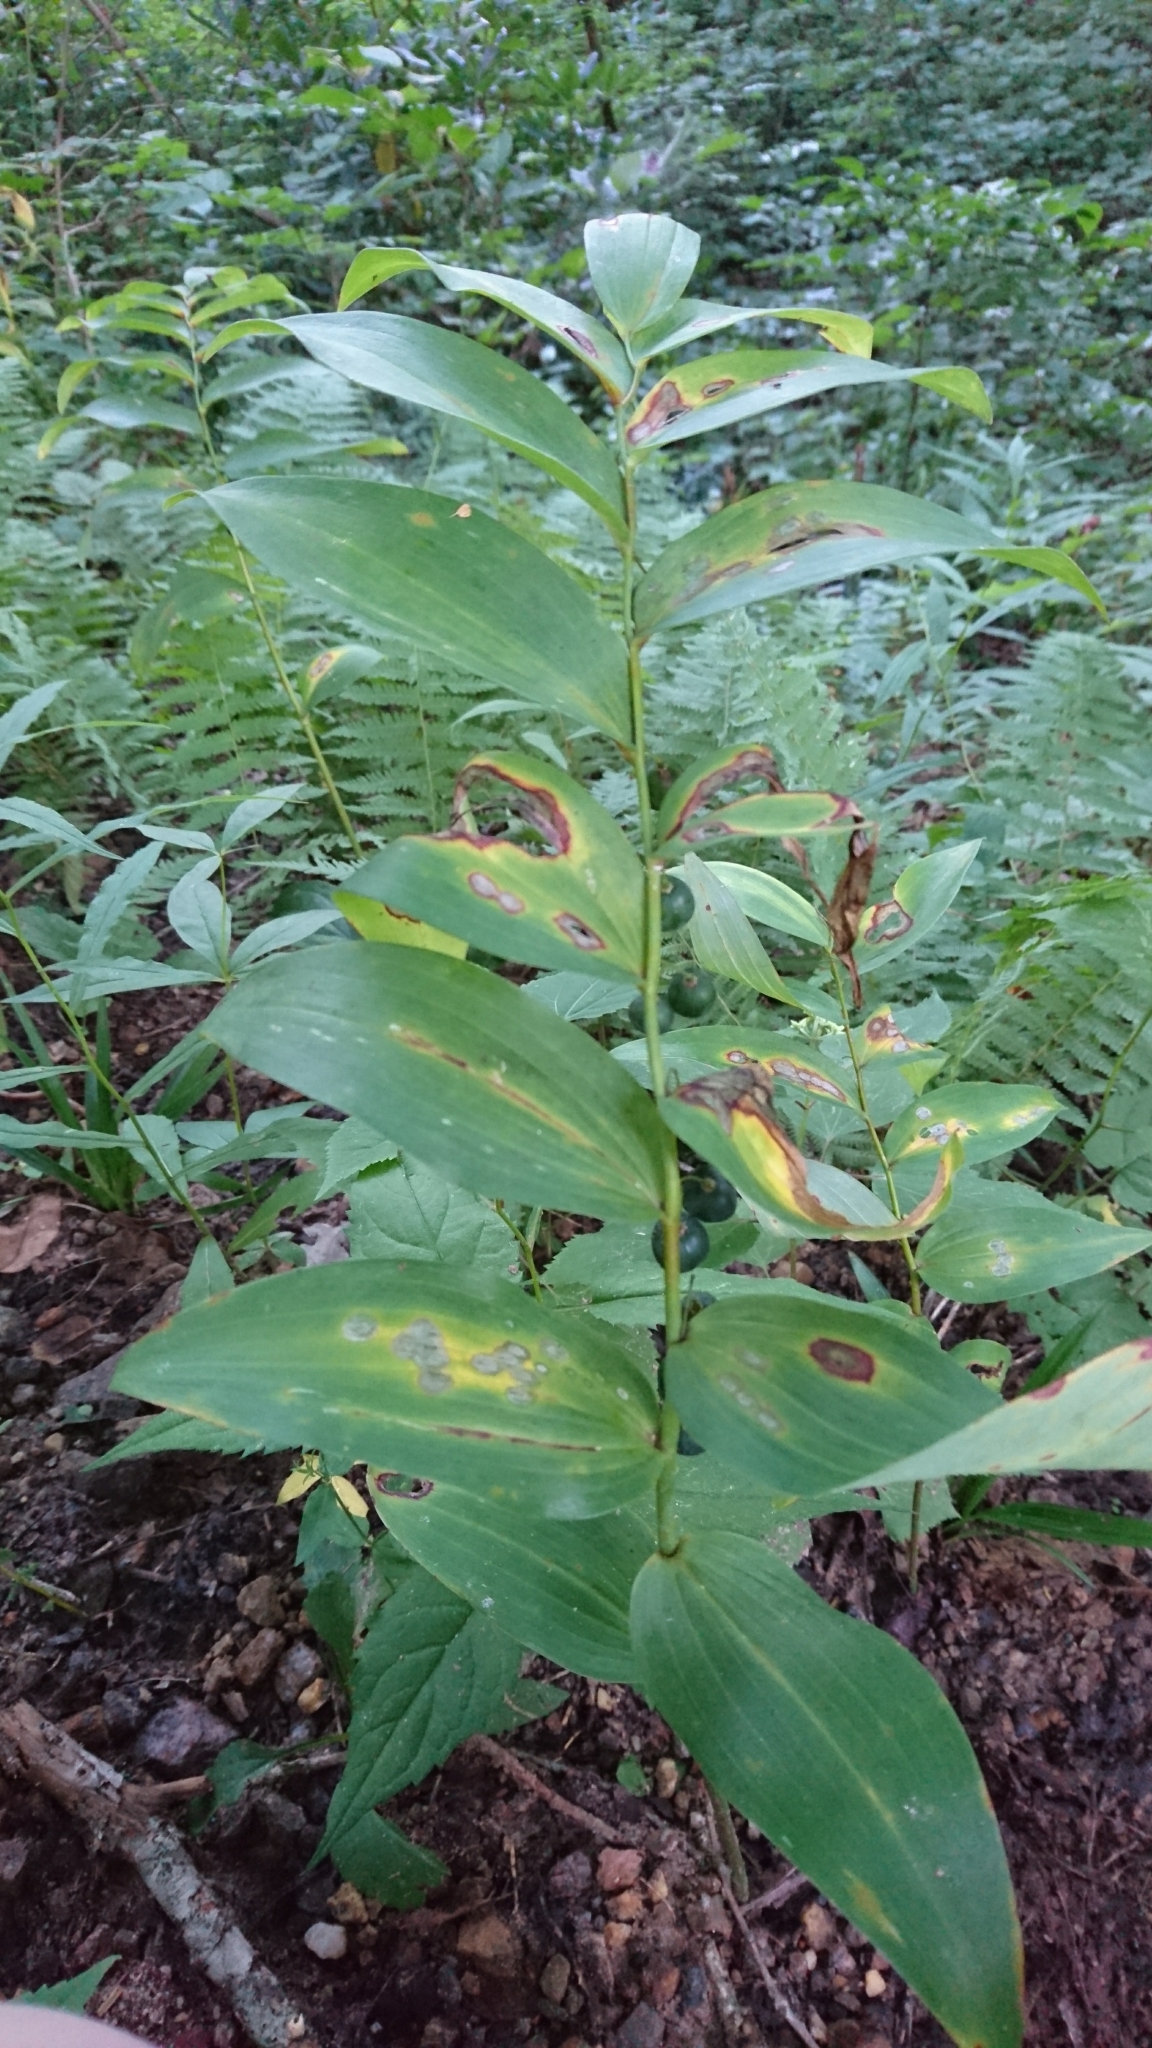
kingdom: Plantae
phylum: Tracheophyta
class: Liliopsida
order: Asparagales
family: Asparagaceae
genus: Polygonatum
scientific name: Polygonatum biflorum
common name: American solomon's-seal
